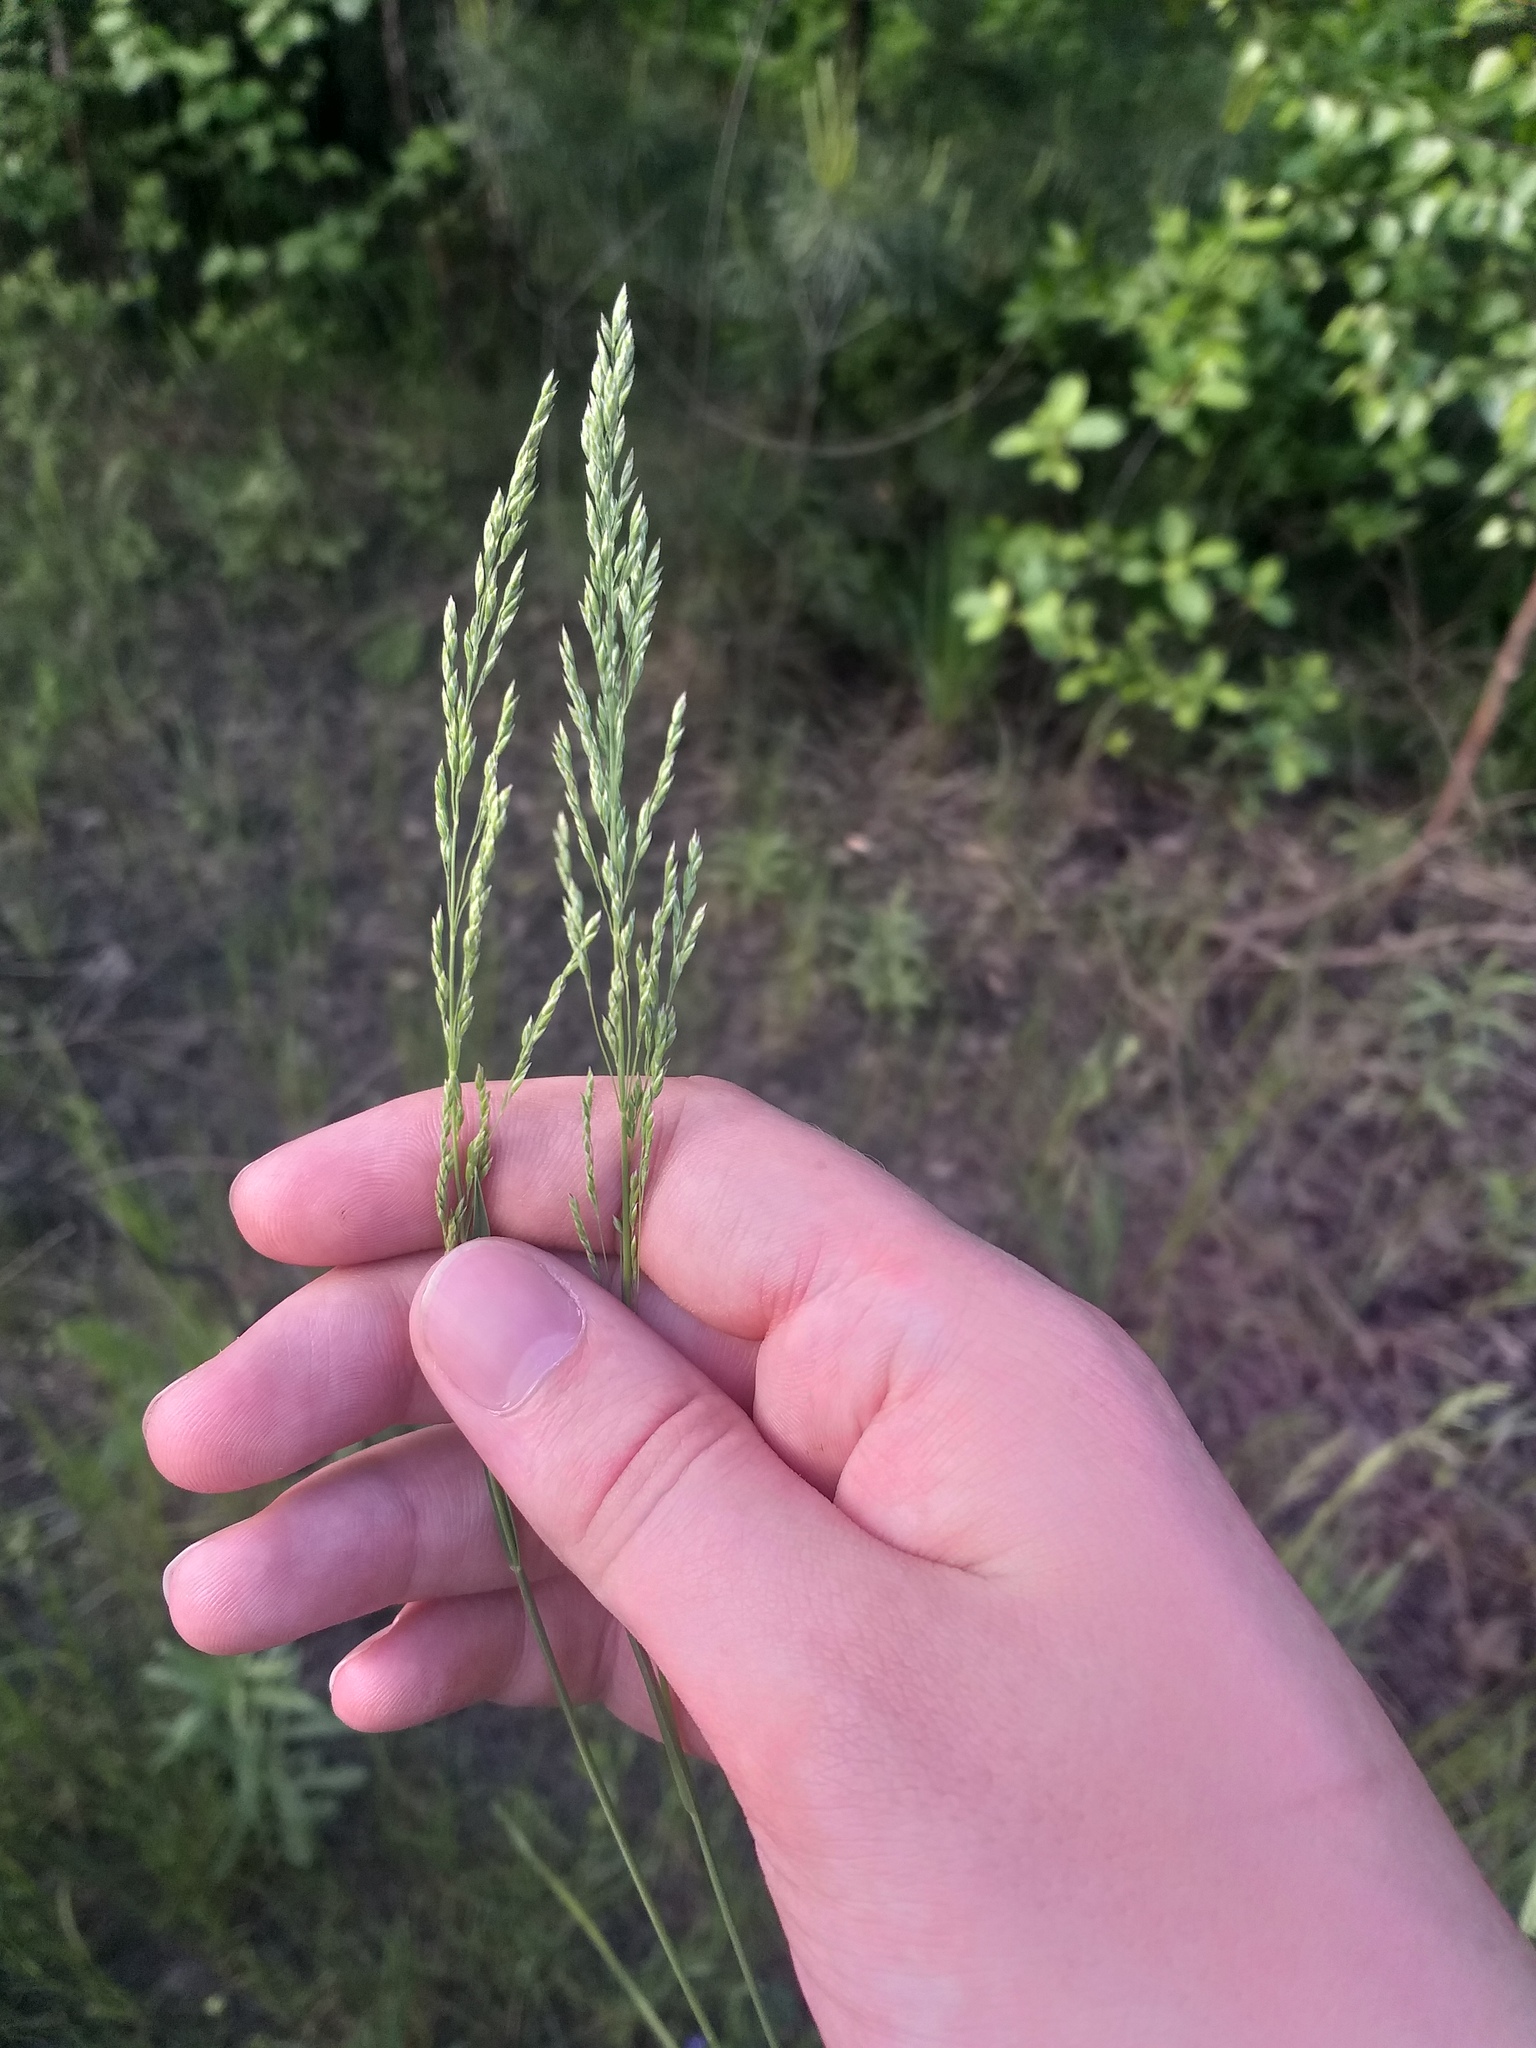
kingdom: Plantae
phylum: Tracheophyta
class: Liliopsida
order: Poales
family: Poaceae
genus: Poa
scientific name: Poa angustifolia
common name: Narrow-leaved meadow-grass
